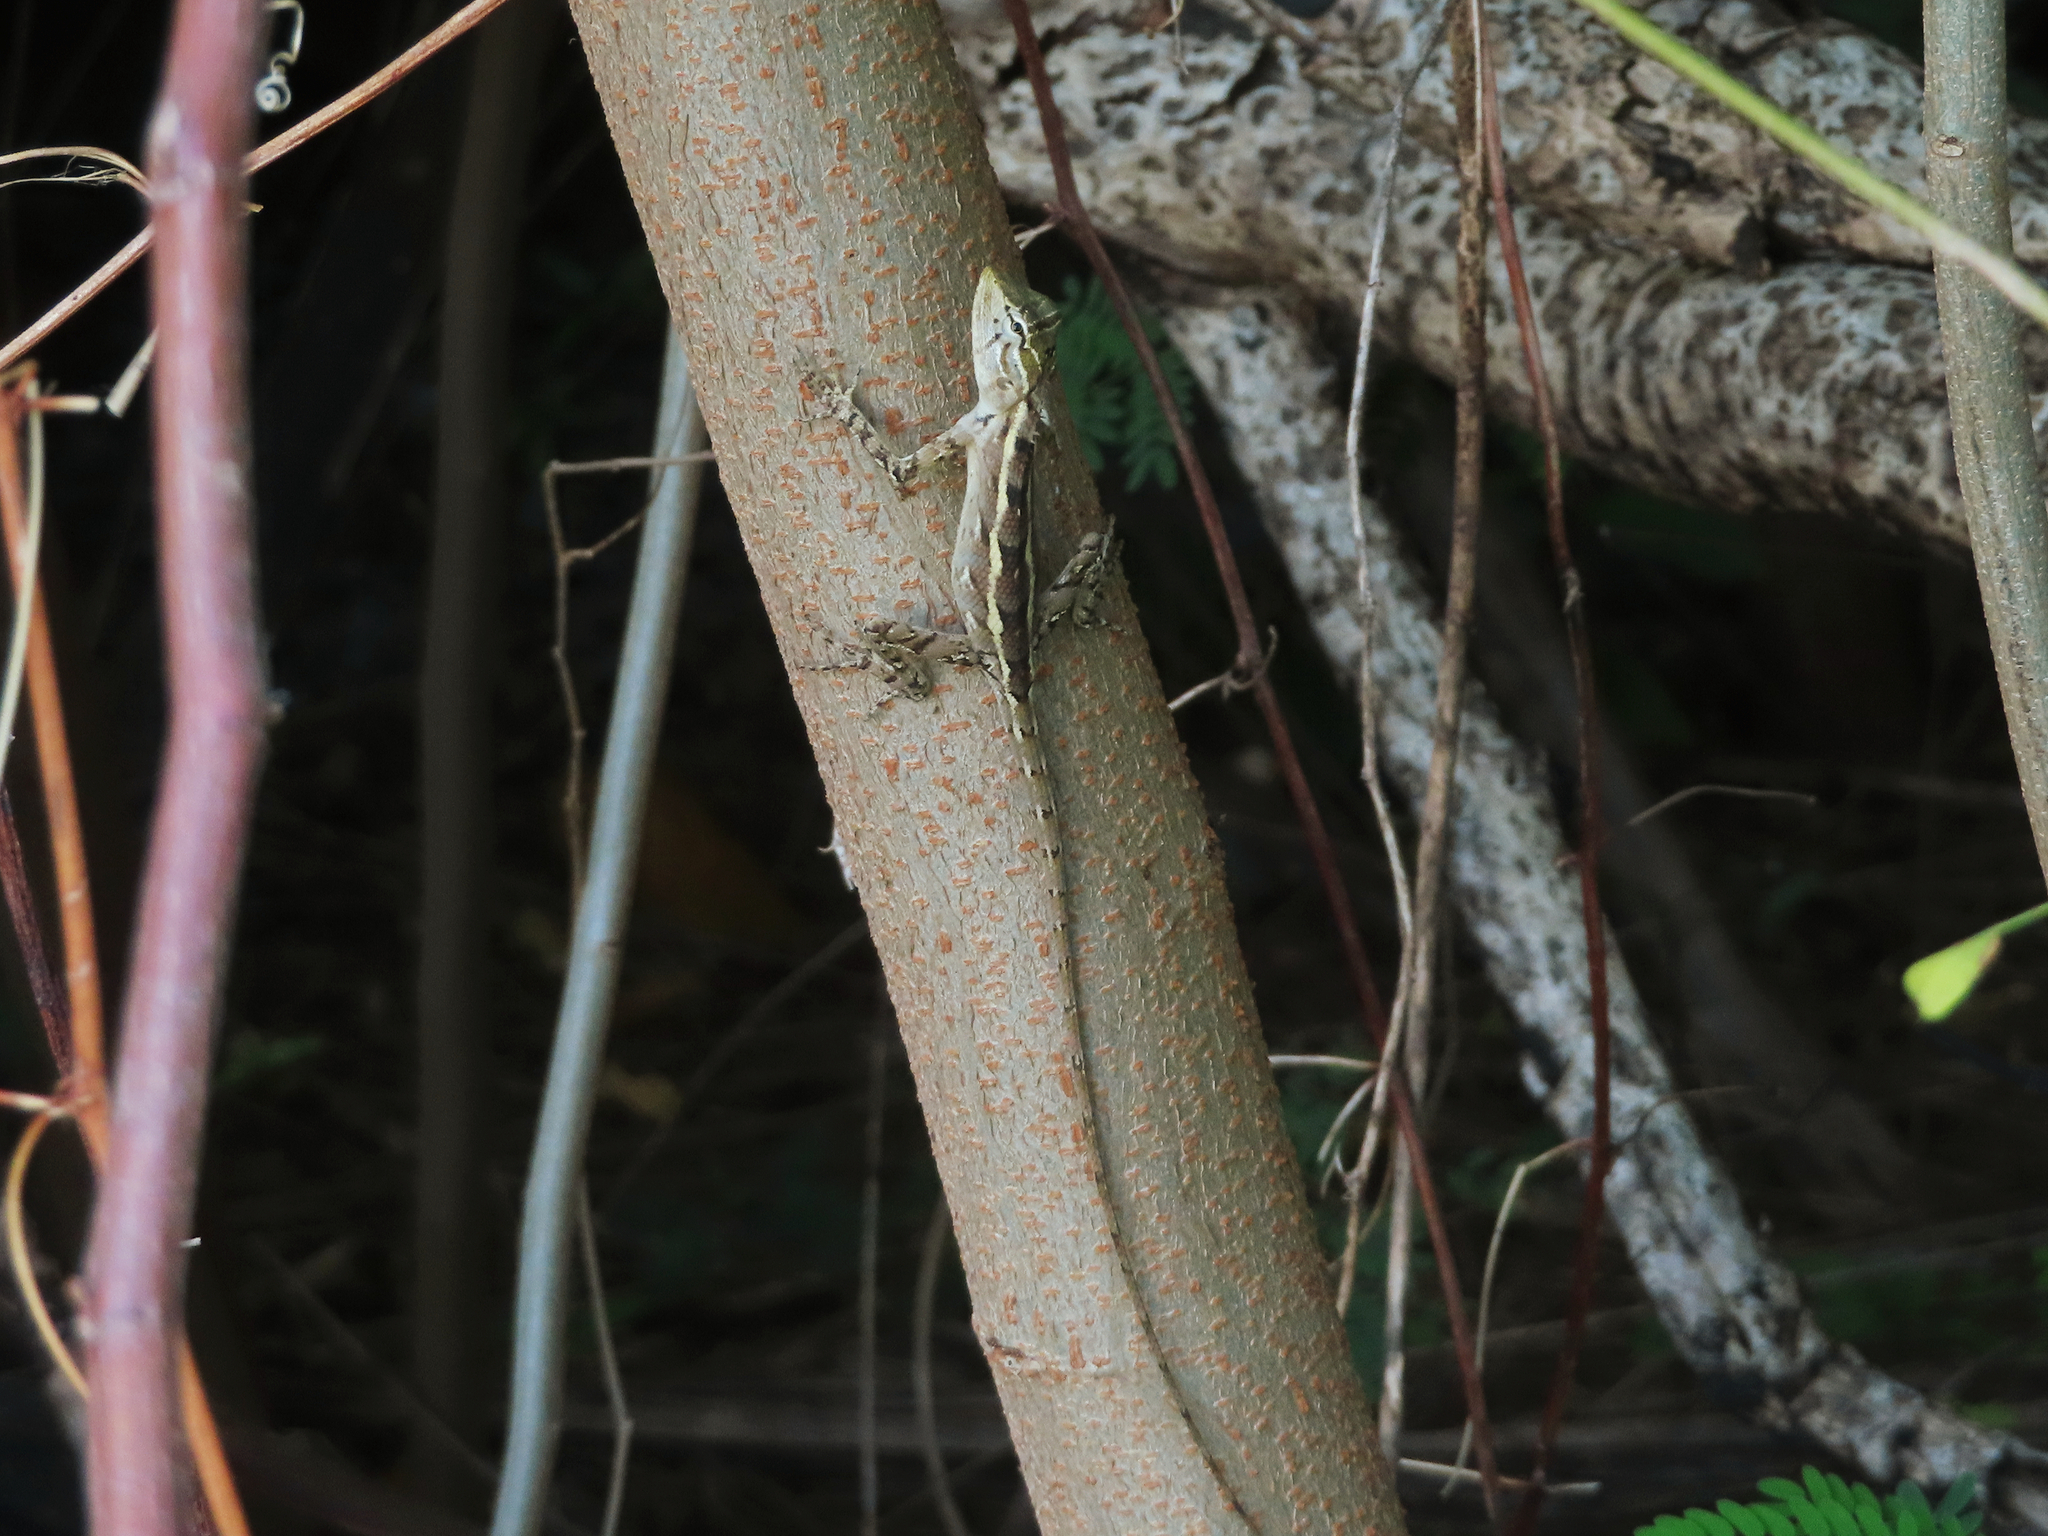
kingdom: Animalia
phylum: Chordata
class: Squamata
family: Agamidae
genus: Calotes
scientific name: Calotes versicolor
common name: Oriental garden lizard
